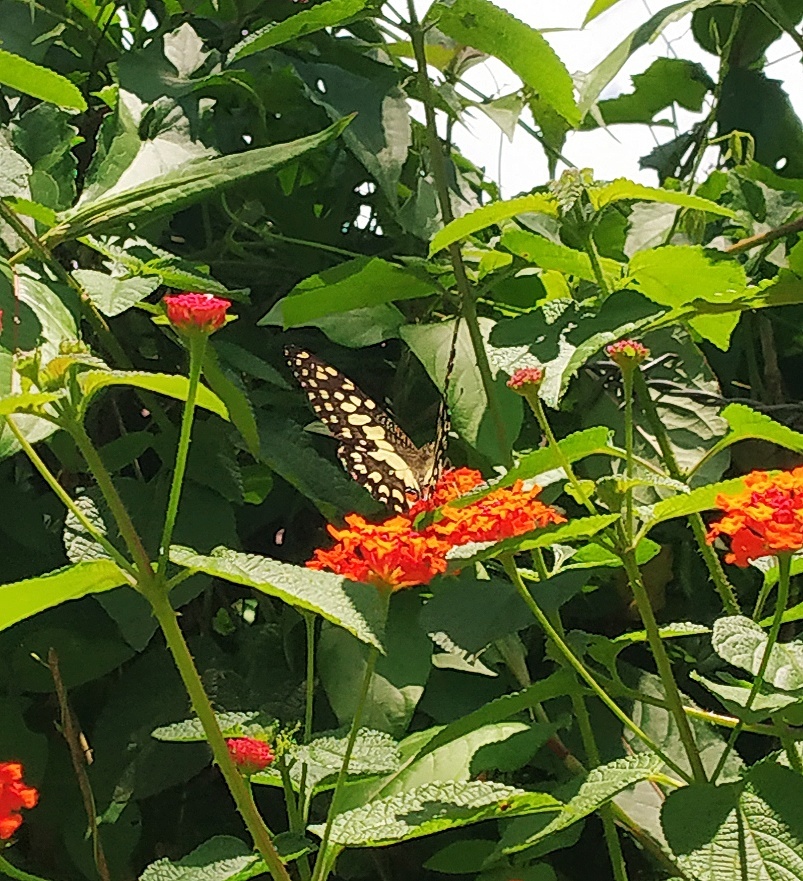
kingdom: Animalia
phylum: Arthropoda
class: Insecta
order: Lepidoptera
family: Papilionidae
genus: Papilio
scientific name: Papilio demoleus
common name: Lime butterfly
